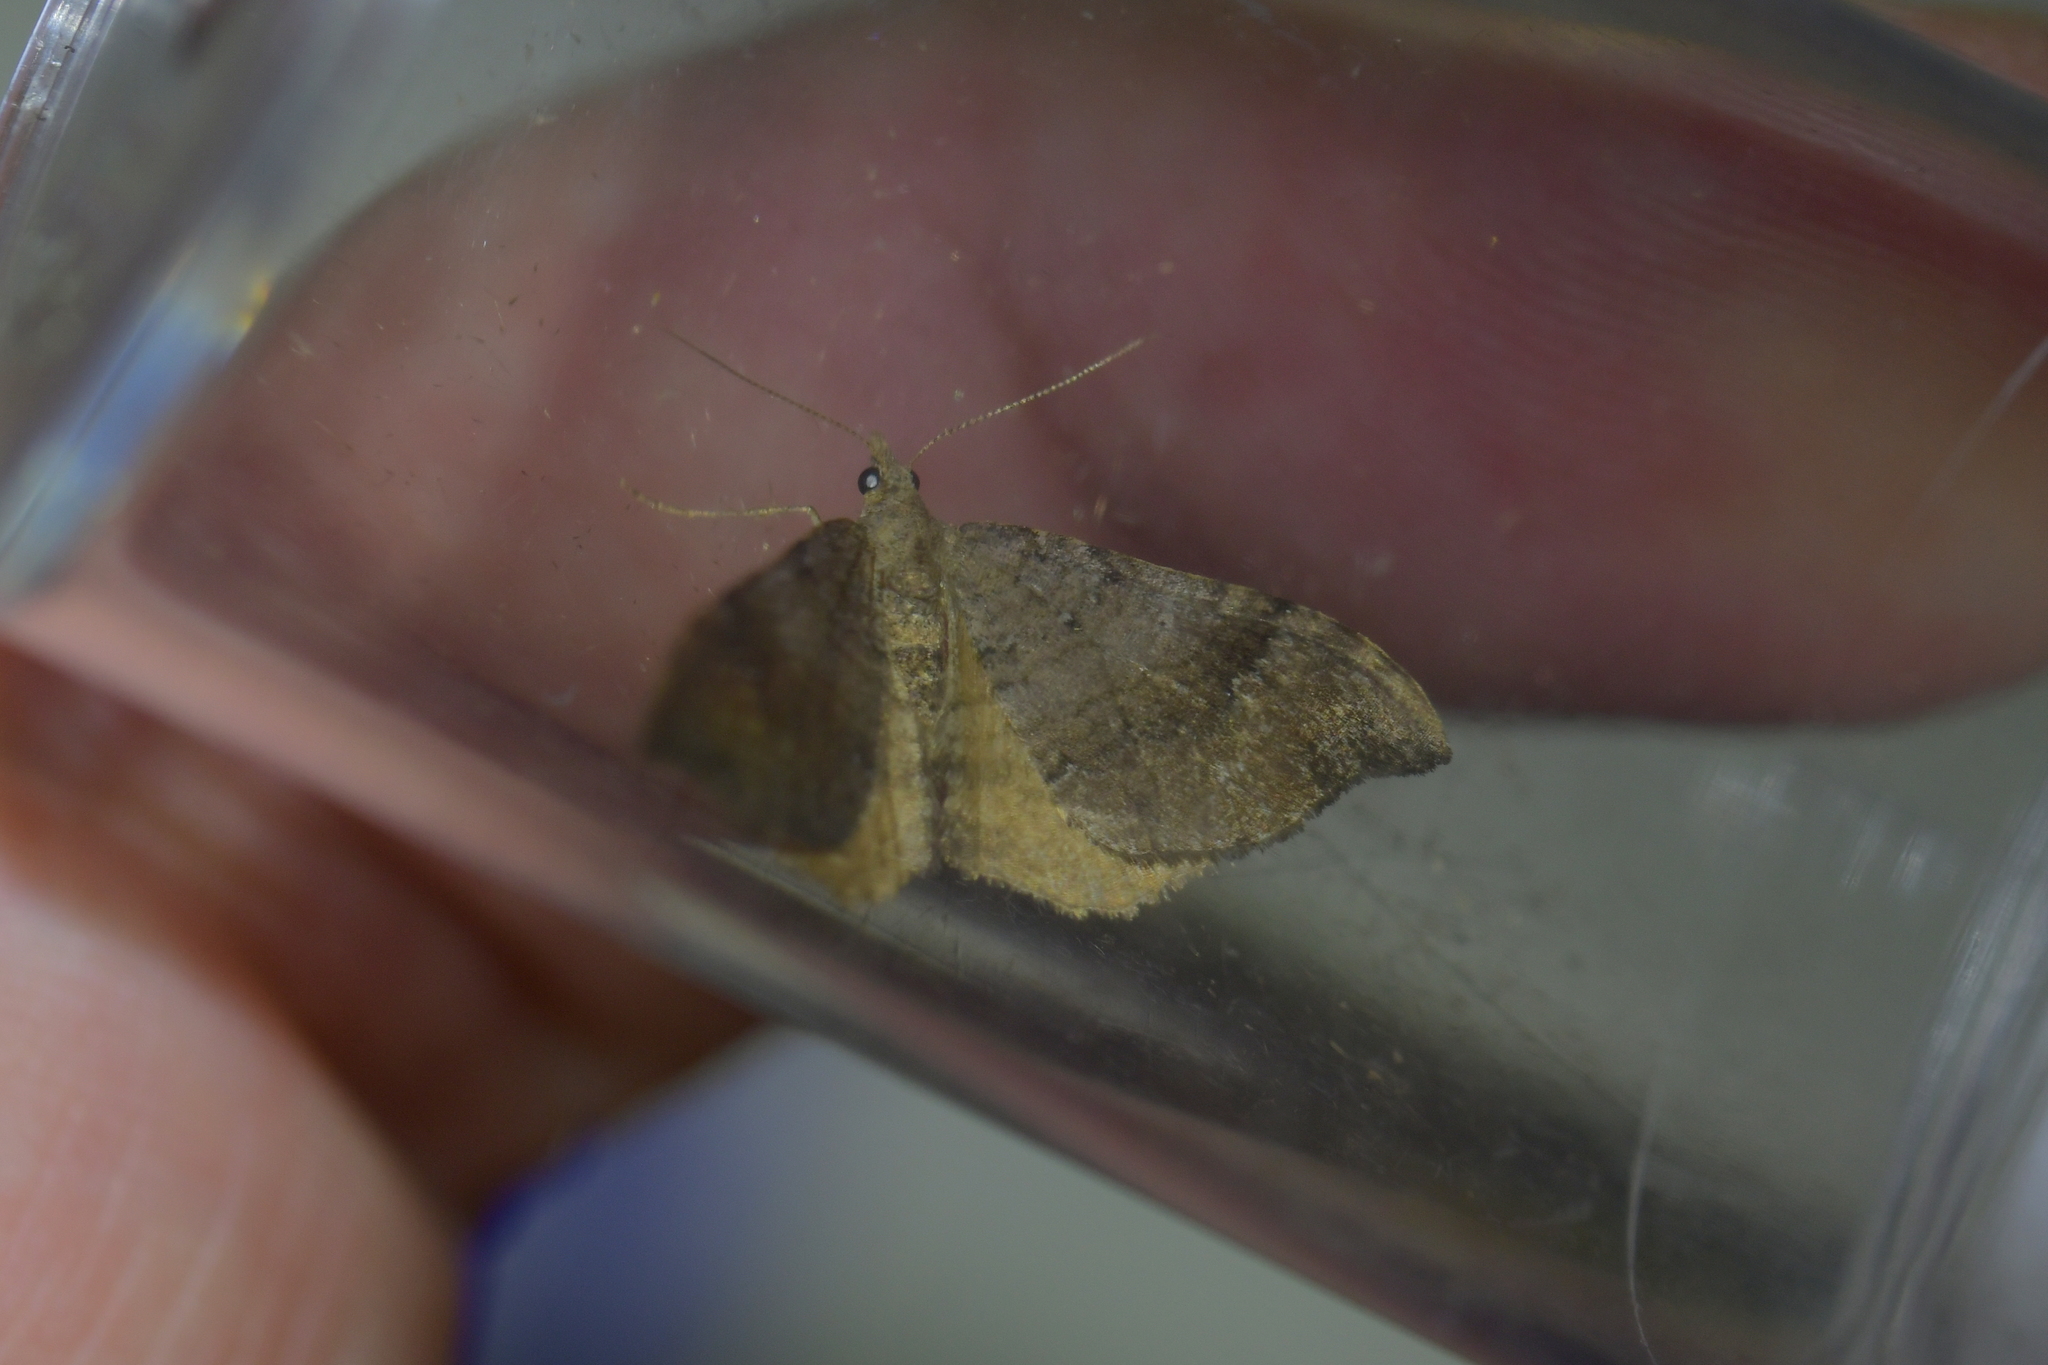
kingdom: Animalia
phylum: Arthropoda
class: Insecta
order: Lepidoptera
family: Geometridae
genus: Homodotis
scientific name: Homodotis megaspilata
